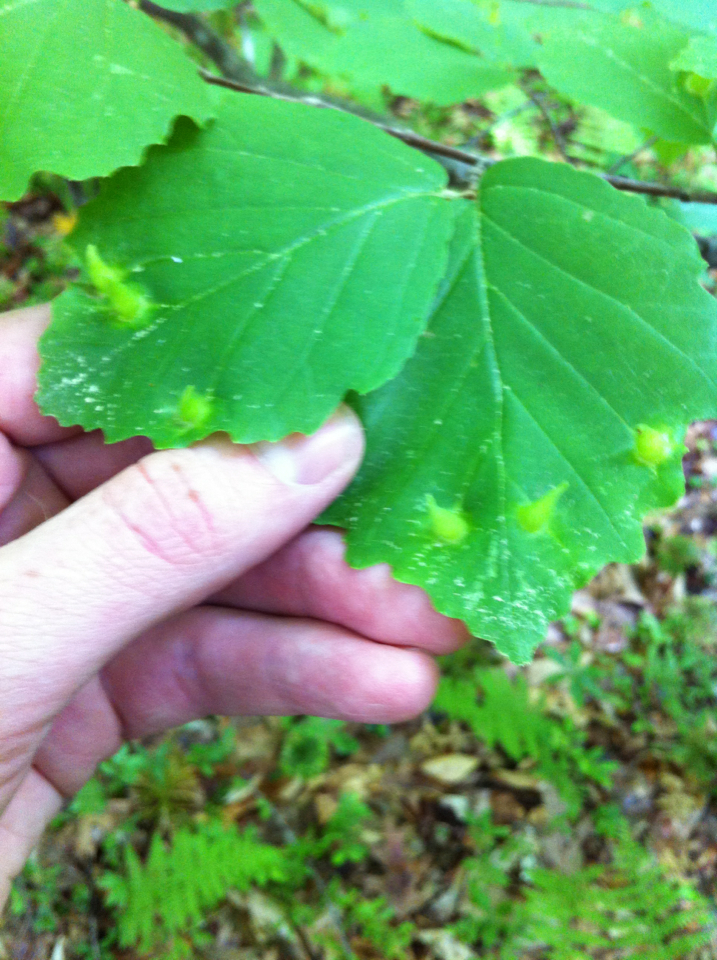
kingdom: Animalia
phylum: Arthropoda
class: Insecta
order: Hemiptera
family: Aphididae
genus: Hormaphis
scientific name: Hormaphis hamamelidis
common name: Witch-hazel cone gall aphid
